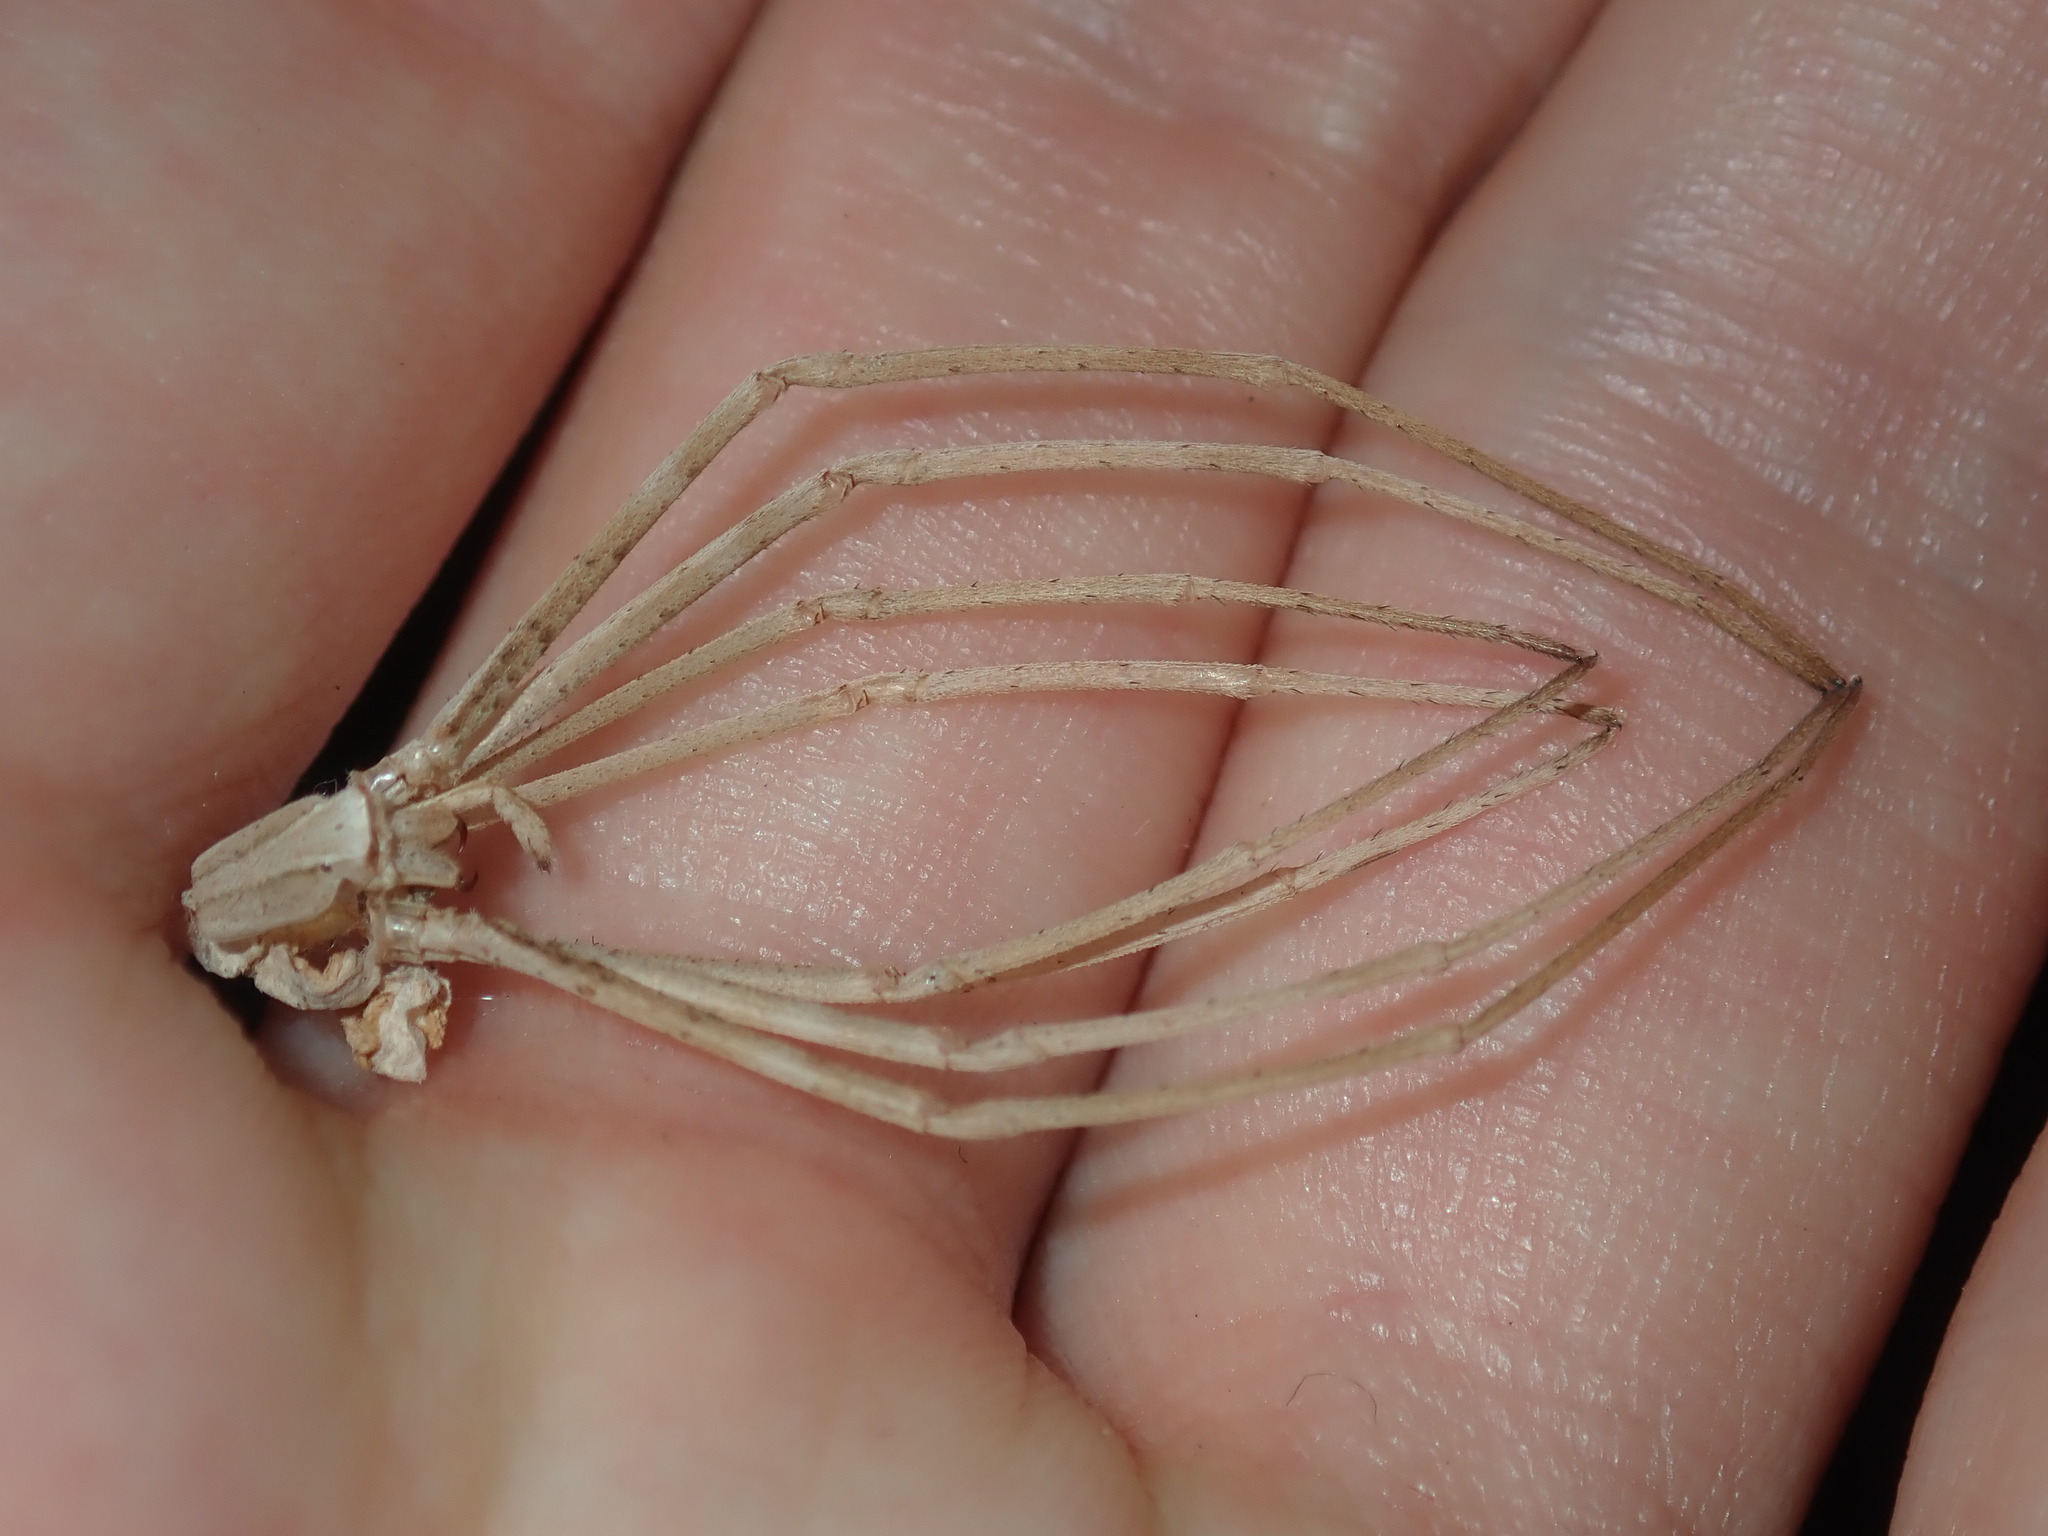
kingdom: Animalia
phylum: Arthropoda
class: Arachnida
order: Araneae
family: Deinopidae
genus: Deinopis
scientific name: Deinopis subrufa
